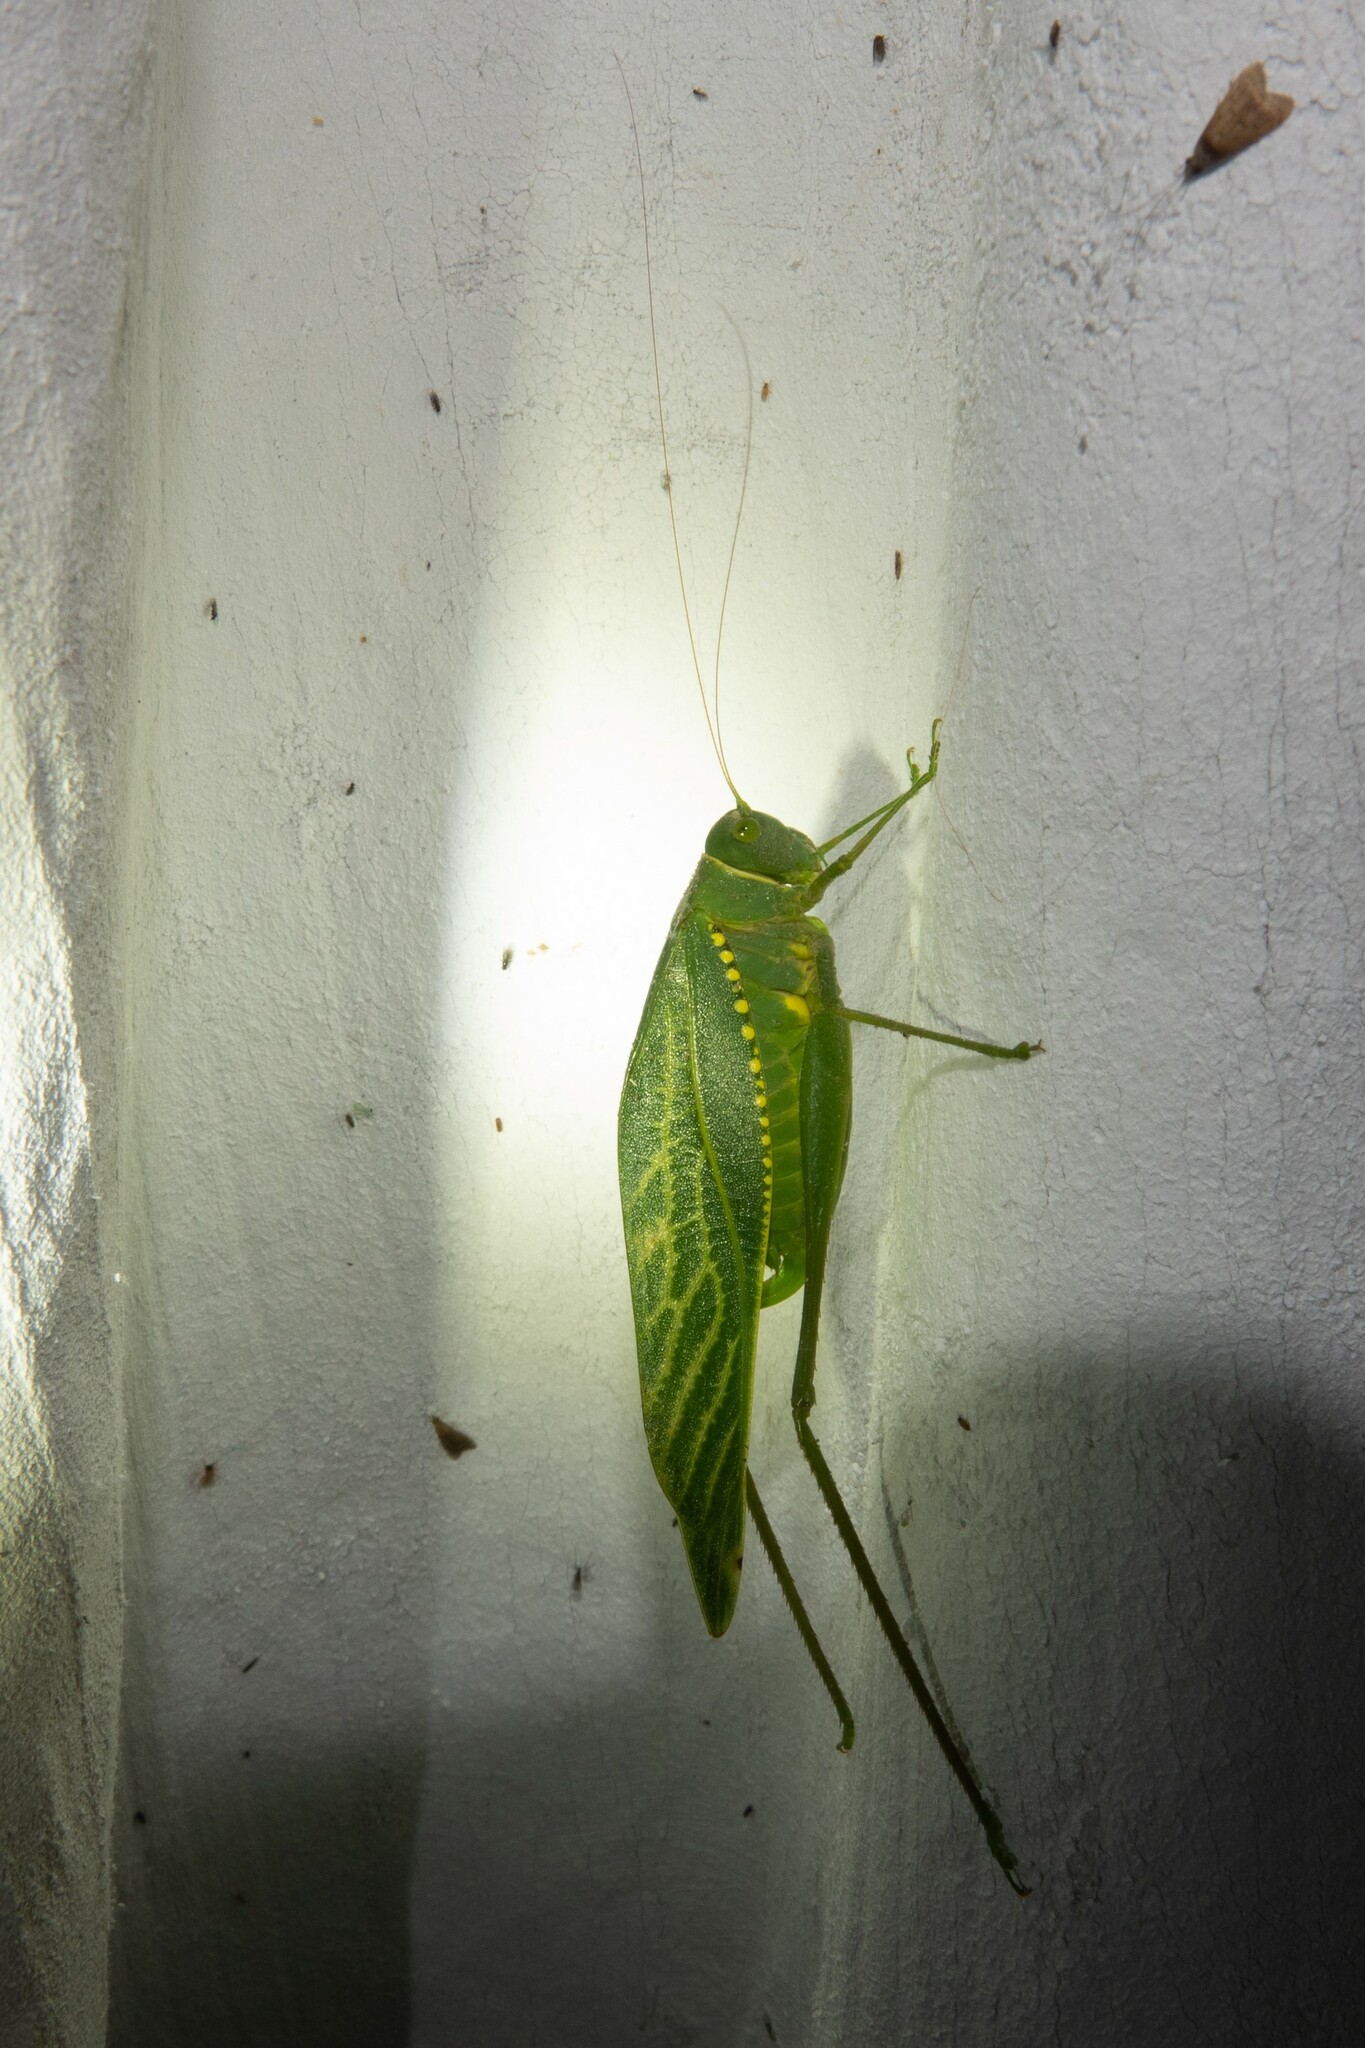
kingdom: Animalia
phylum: Arthropoda
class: Insecta
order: Orthoptera
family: Tettigoniidae
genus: Microcentrum
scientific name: Microcentrum xavieri
